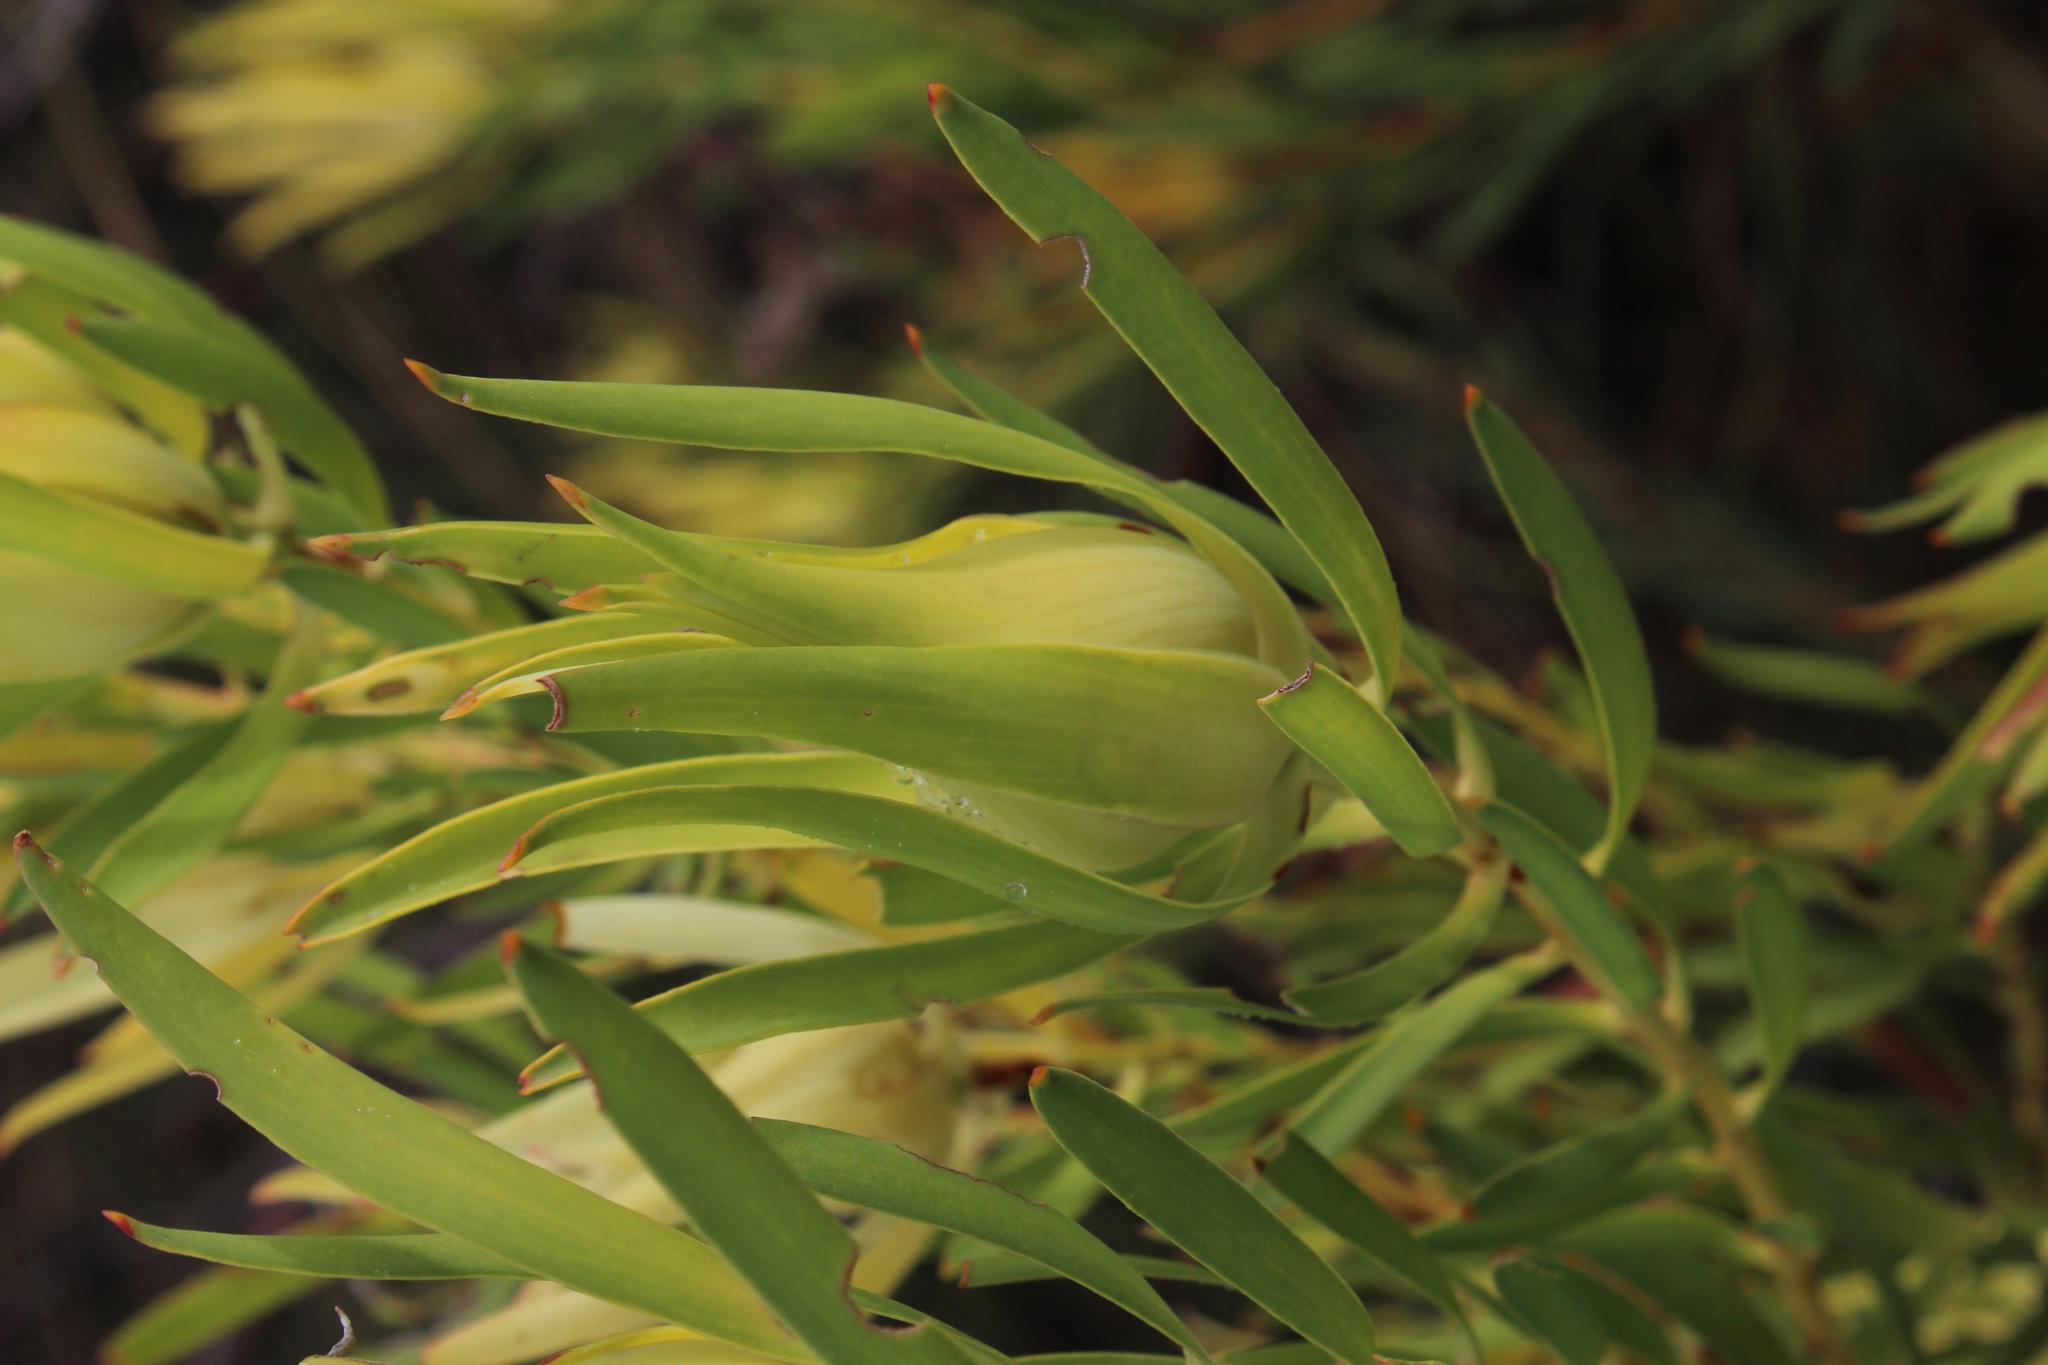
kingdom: Plantae
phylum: Tracheophyta
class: Magnoliopsida
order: Proteales
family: Proteaceae
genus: Leucadendron
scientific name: Leucadendron salignum
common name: Common sunshine conebush
